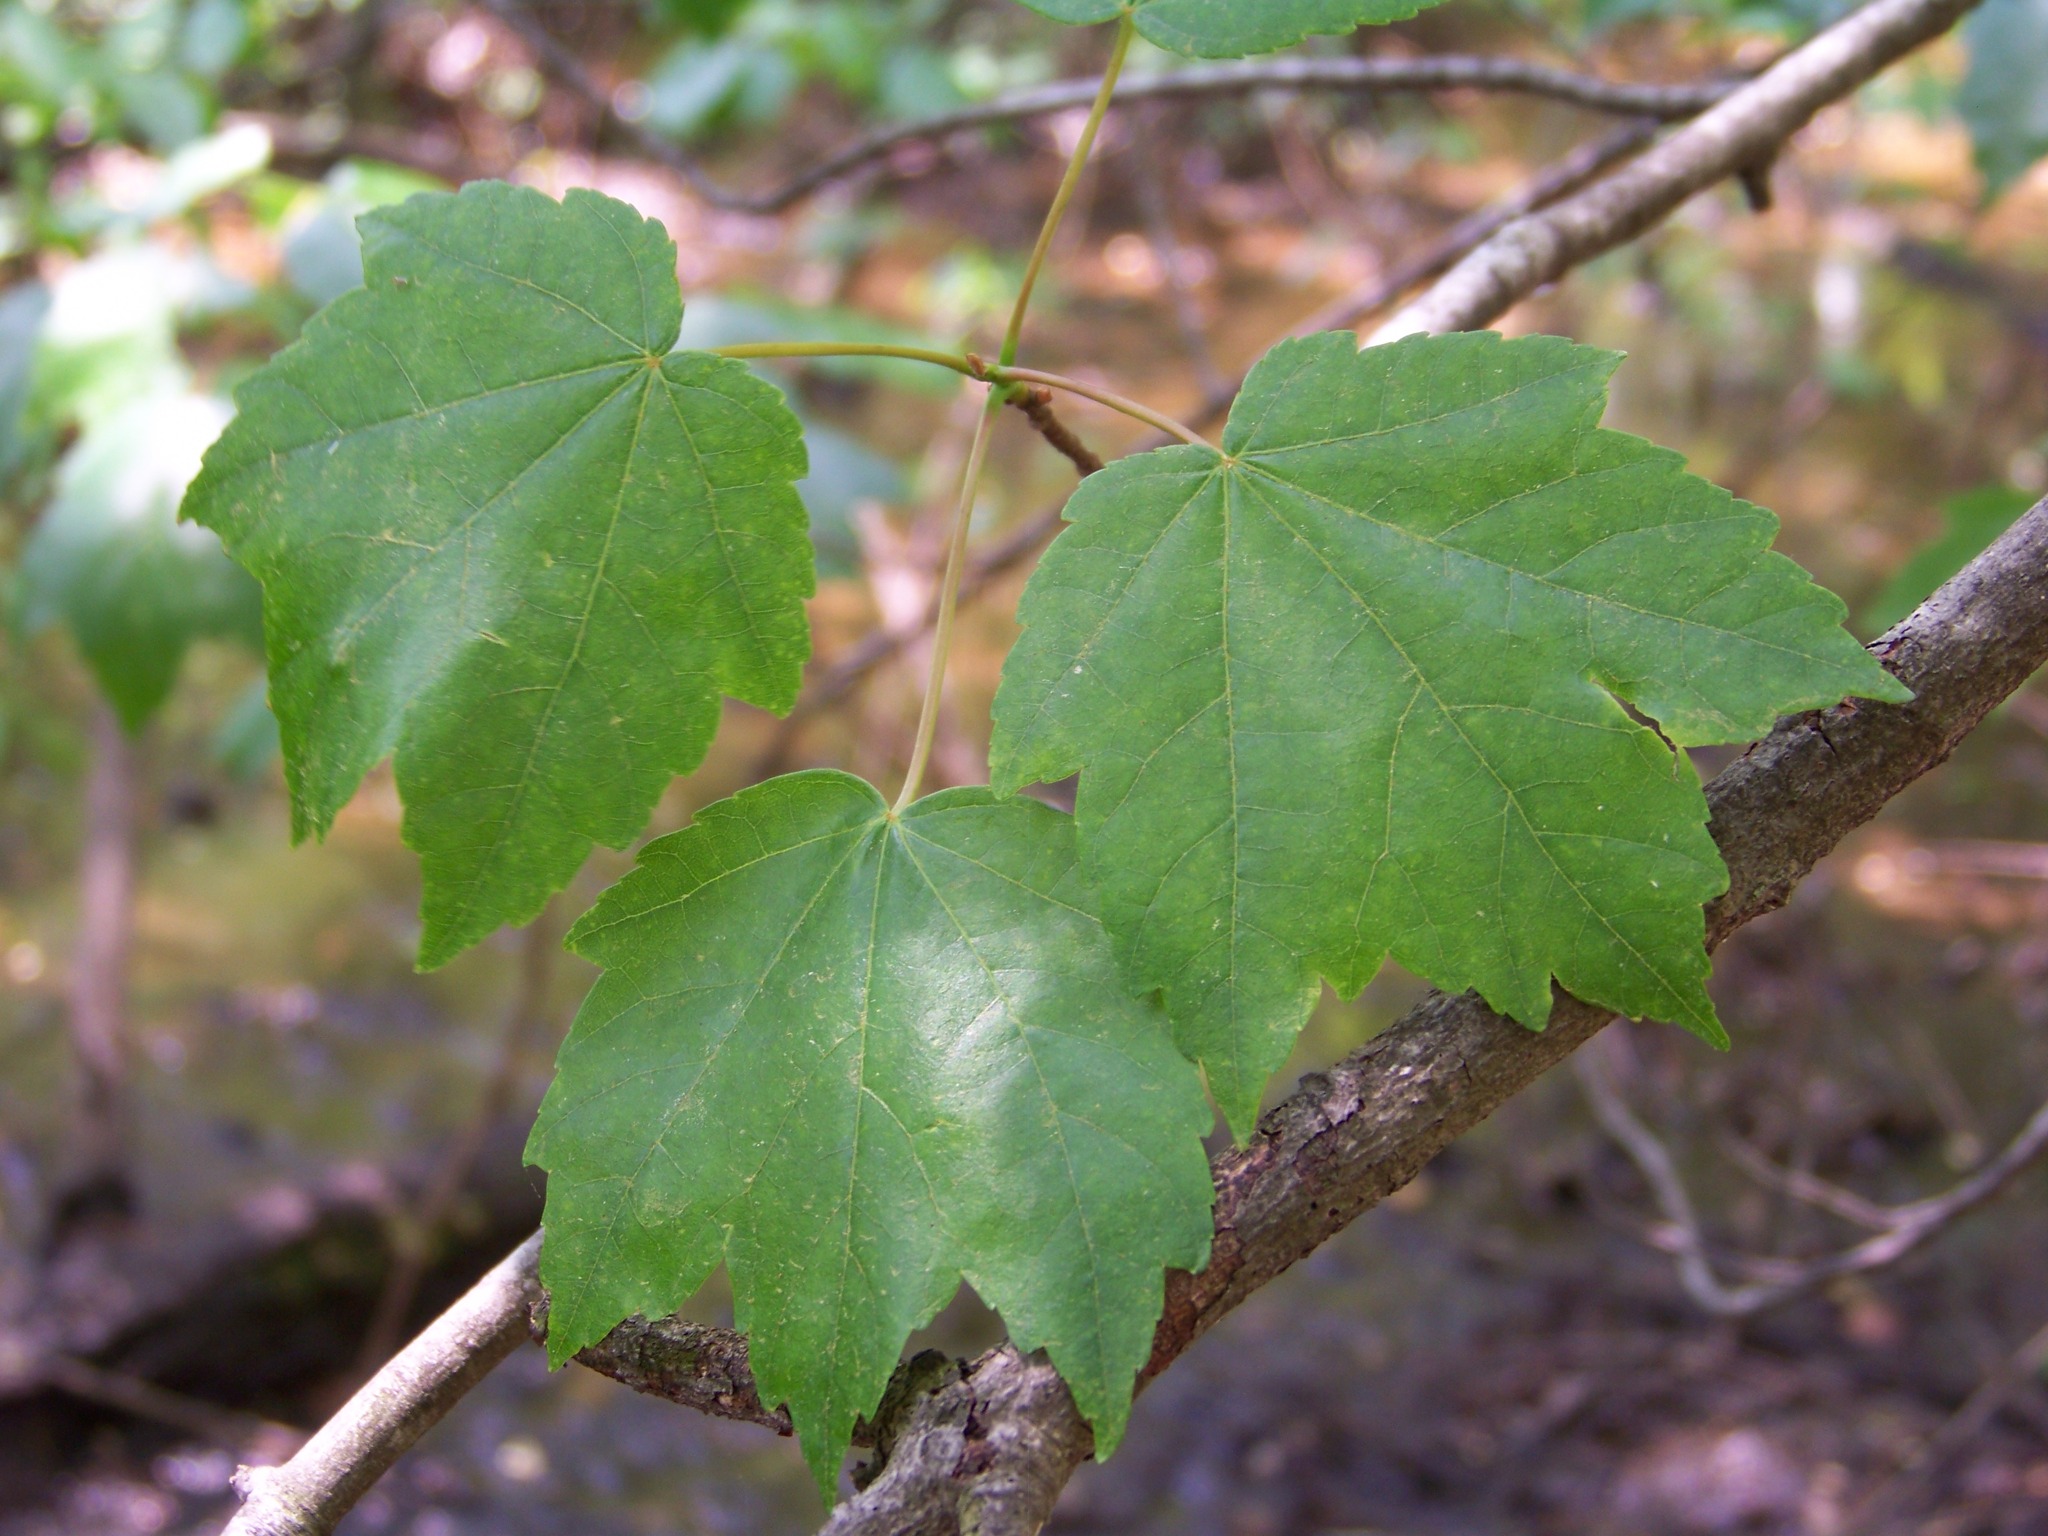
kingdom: Plantae
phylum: Tracheophyta
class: Magnoliopsida
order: Sapindales
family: Sapindaceae
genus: Acer
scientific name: Acer rubrum
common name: Red maple
